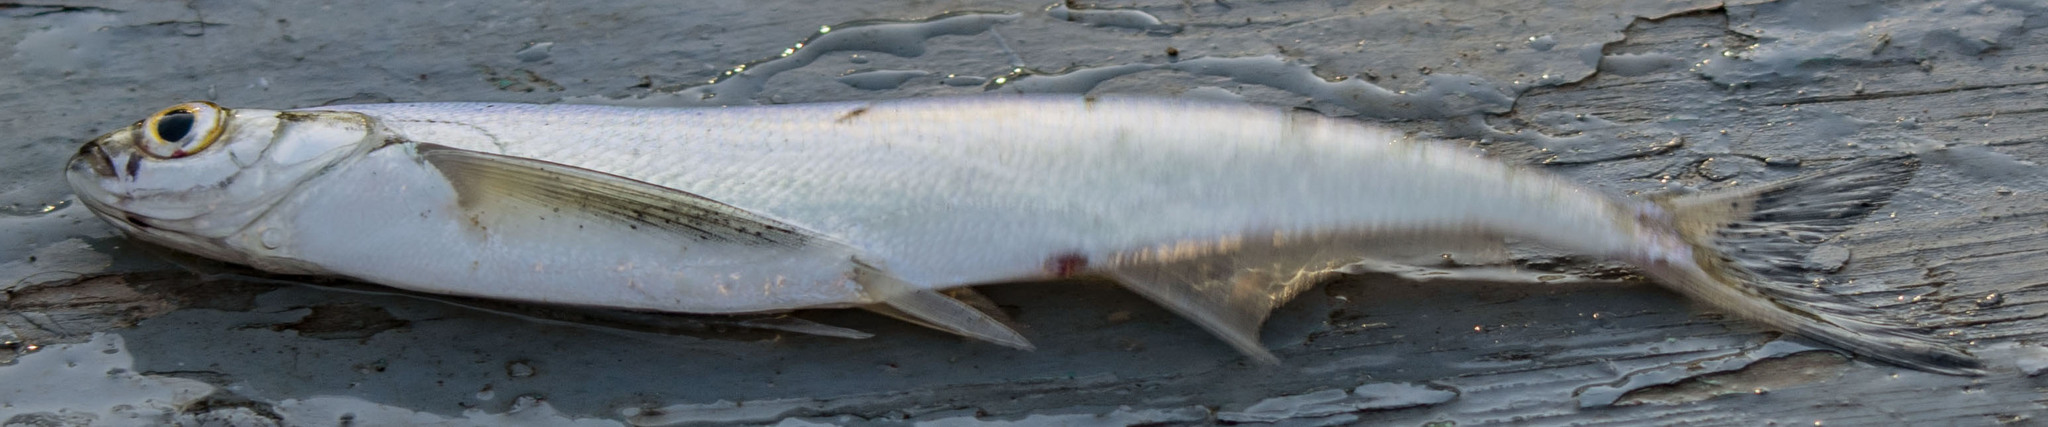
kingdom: Animalia
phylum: Chordata
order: Cypriniformes
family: Cyprinidae
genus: Pelecus
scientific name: Pelecus cultratus
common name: Ziege
